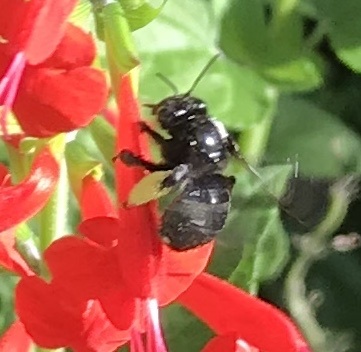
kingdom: Animalia
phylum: Arthropoda
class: Insecta
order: Hymenoptera
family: Apidae
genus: Melissodes
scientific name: Melissodes bimaculatus
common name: Two-spotted long-horned bee
